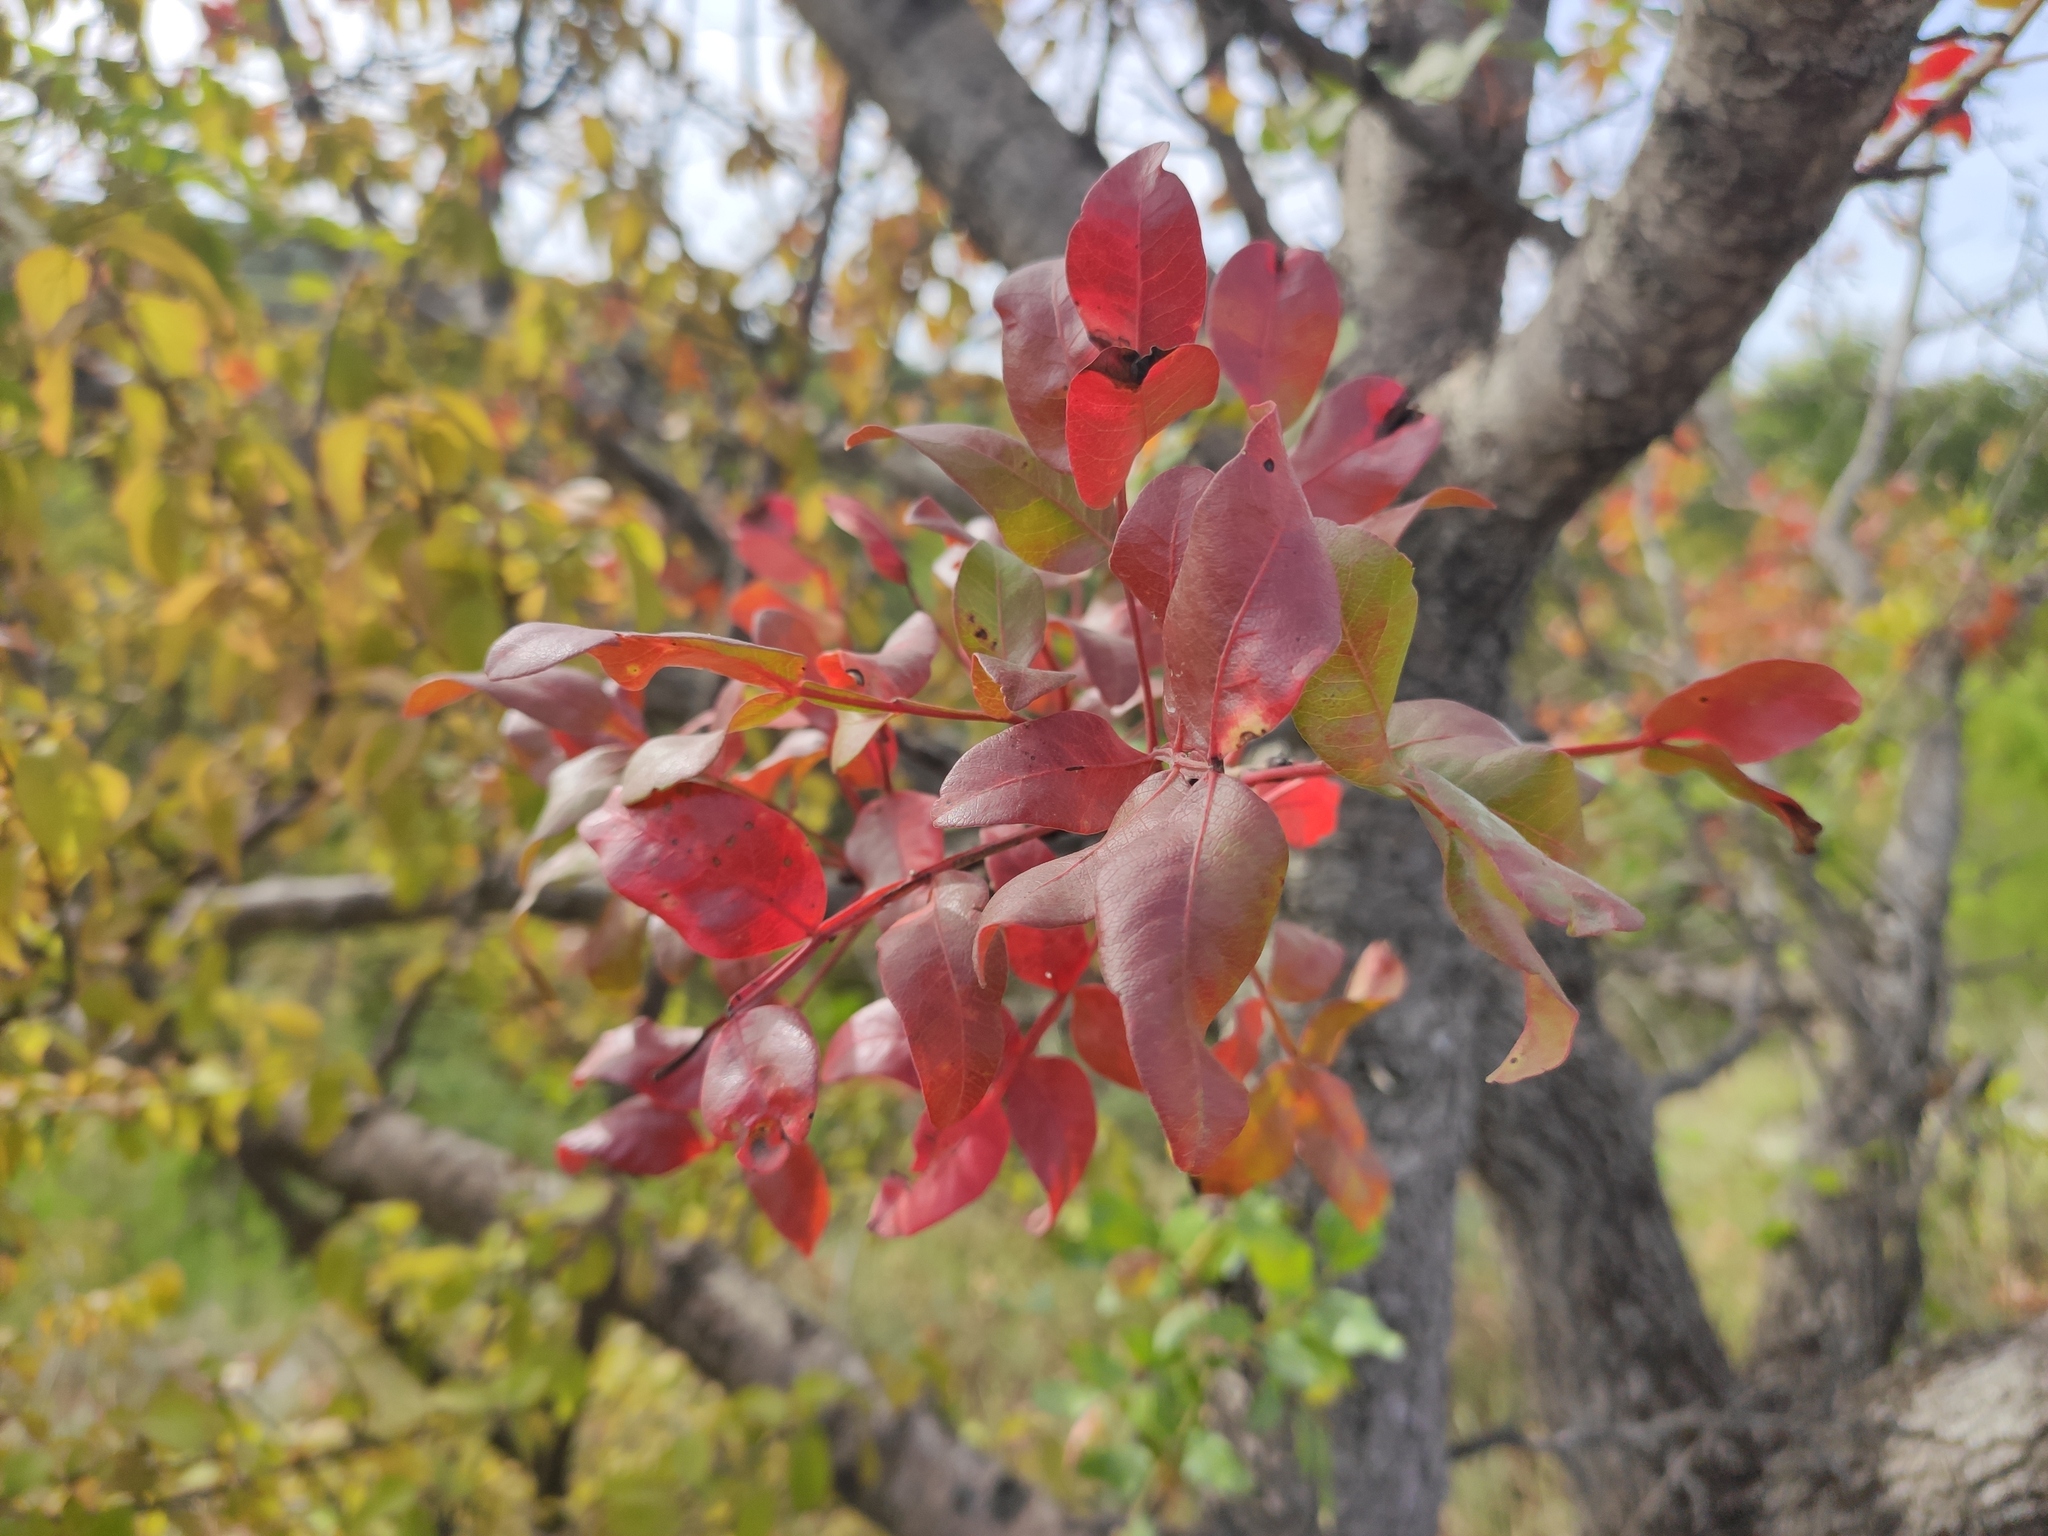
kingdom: Plantae
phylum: Tracheophyta
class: Magnoliopsida
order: Sapindales
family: Anacardiaceae
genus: Pistacia
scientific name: Pistacia atlantica
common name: Mt. atlas mastic tree
